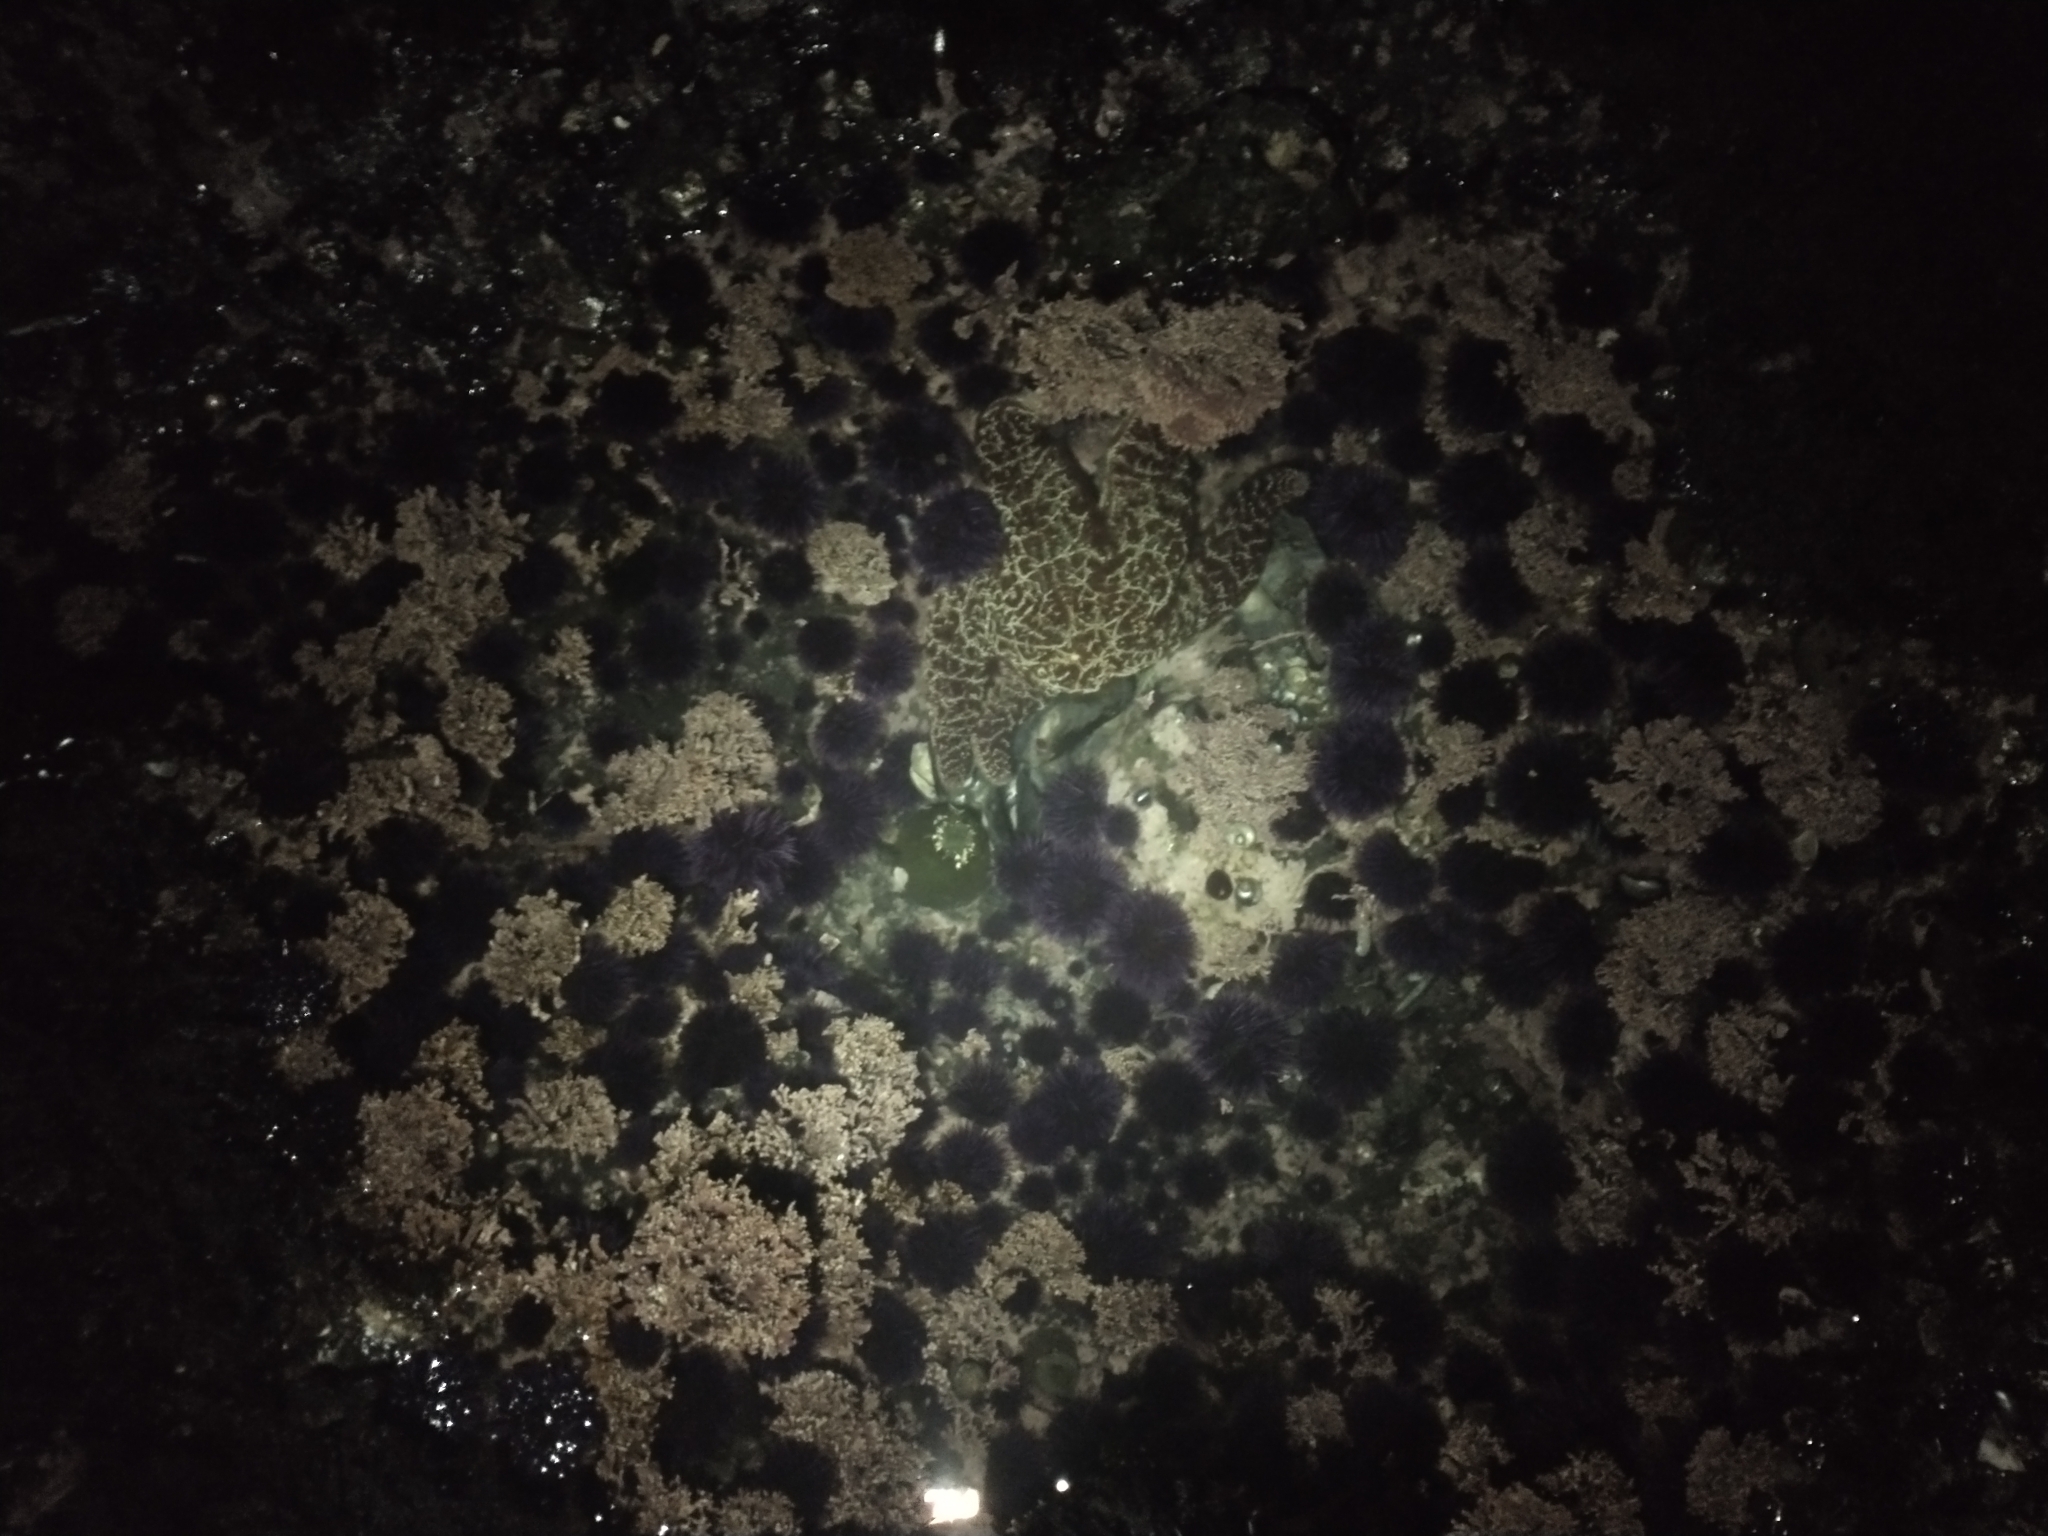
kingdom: Animalia
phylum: Echinodermata
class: Asteroidea
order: Forcipulatida
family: Asteriidae
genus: Pisaster
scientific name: Pisaster ochraceus
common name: Ochre stars
